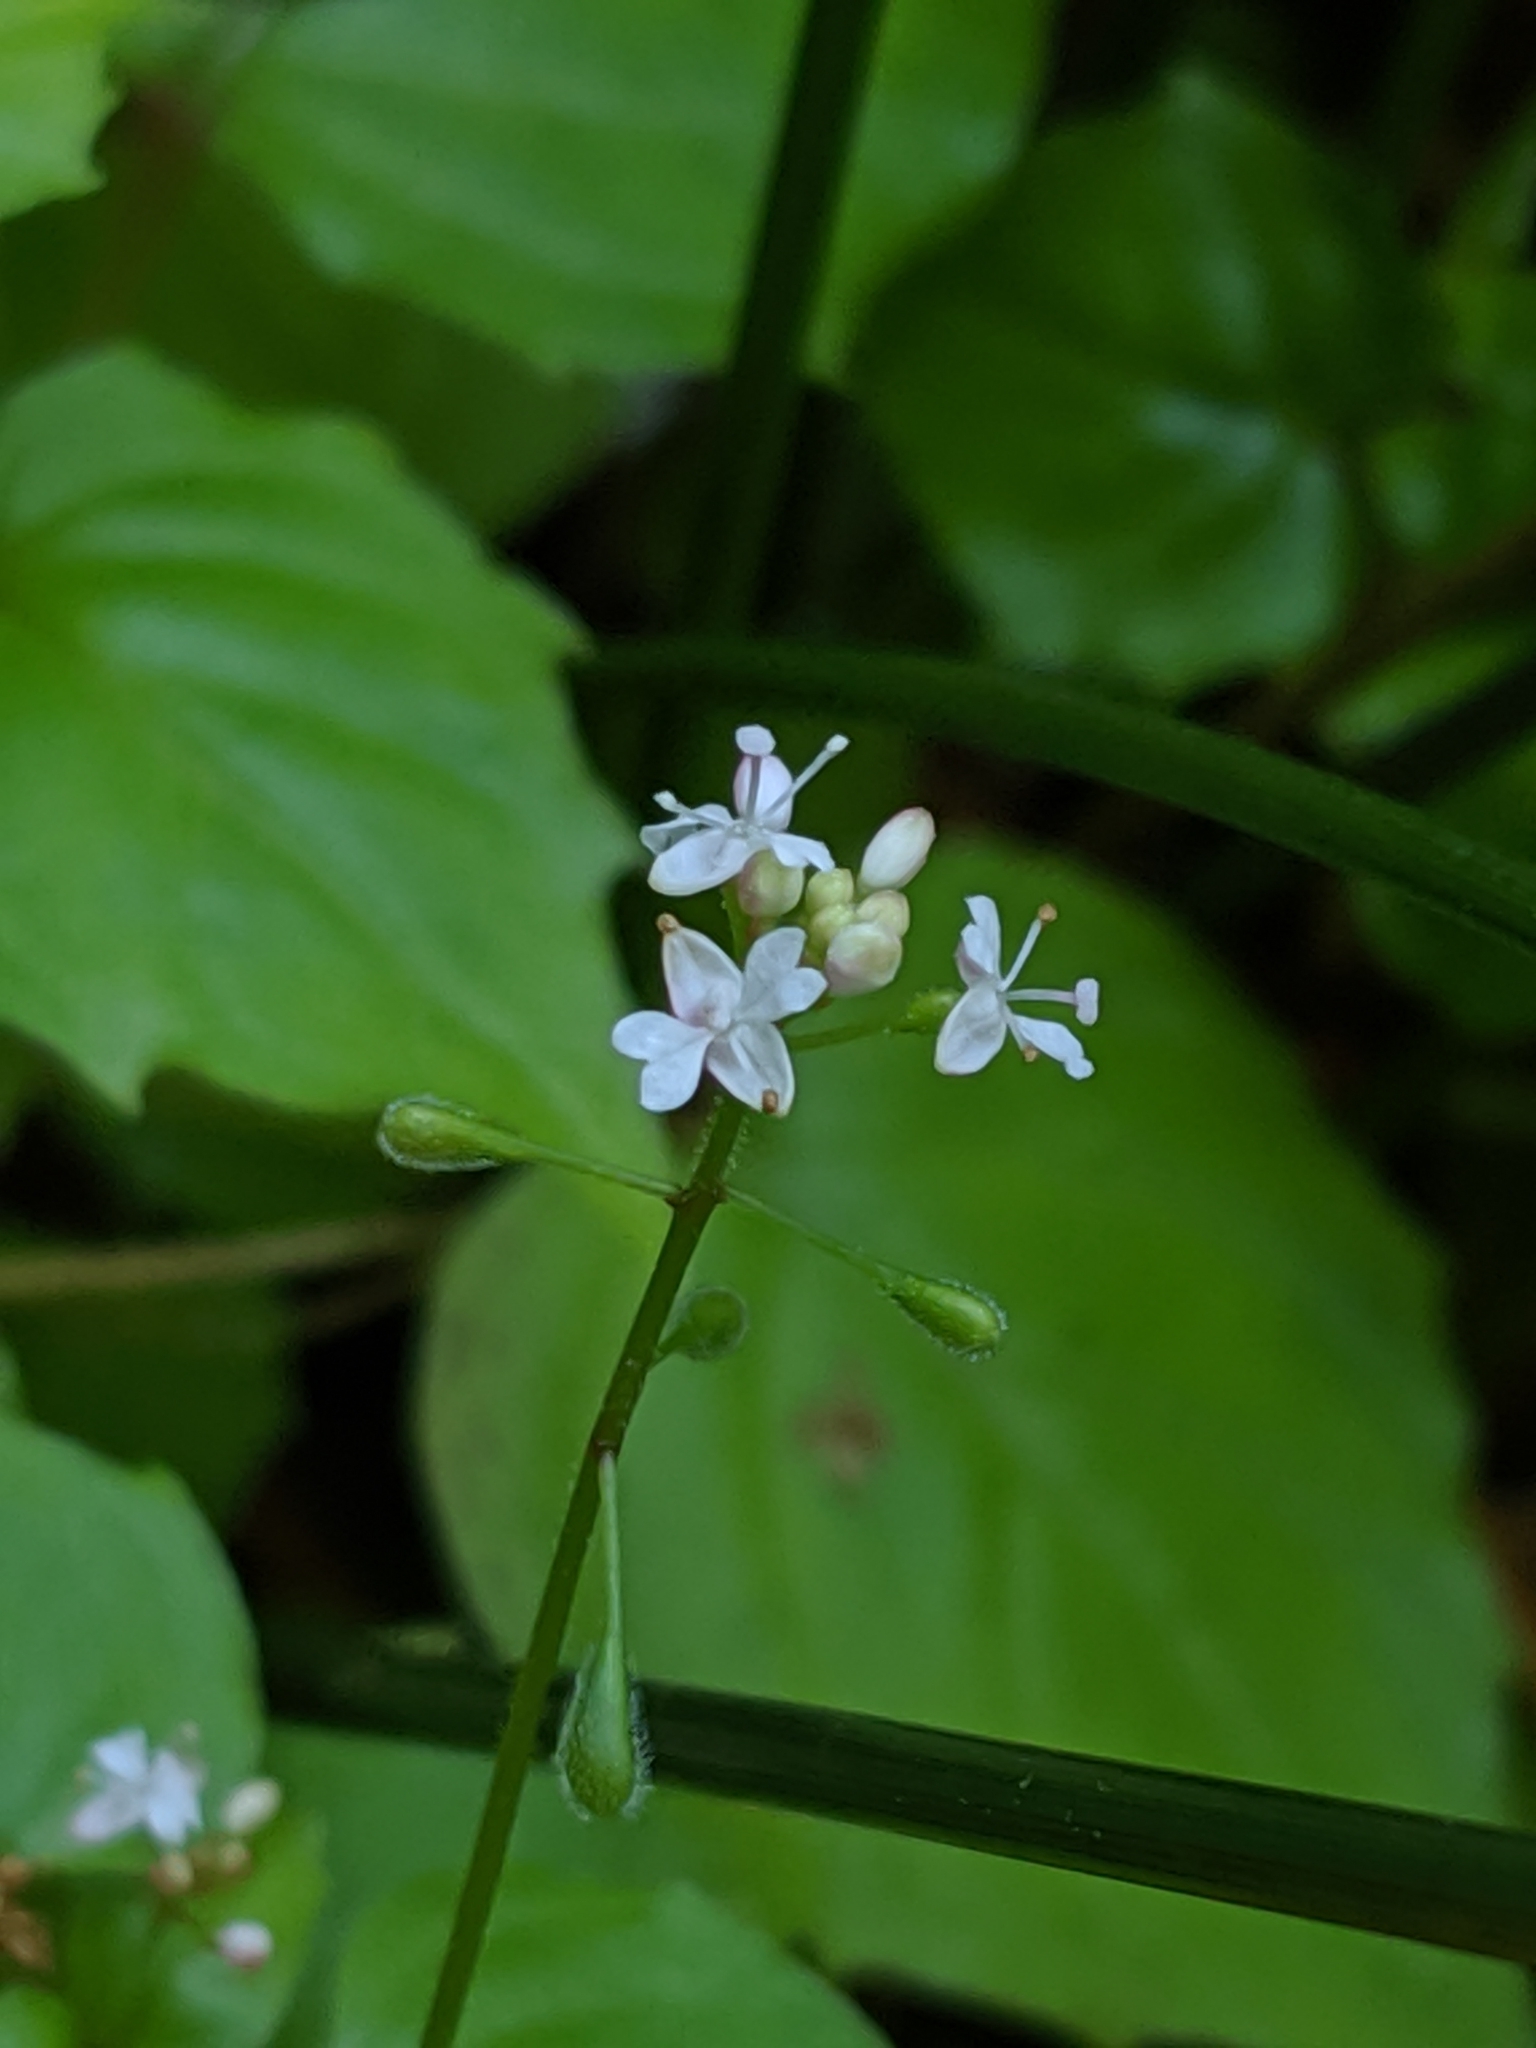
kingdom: Plantae
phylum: Tracheophyta
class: Magnoliopsida
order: Myrtales
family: Onagraceae
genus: Circaea
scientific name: Circaea alpina
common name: Alpine enchanter's-nightshade
